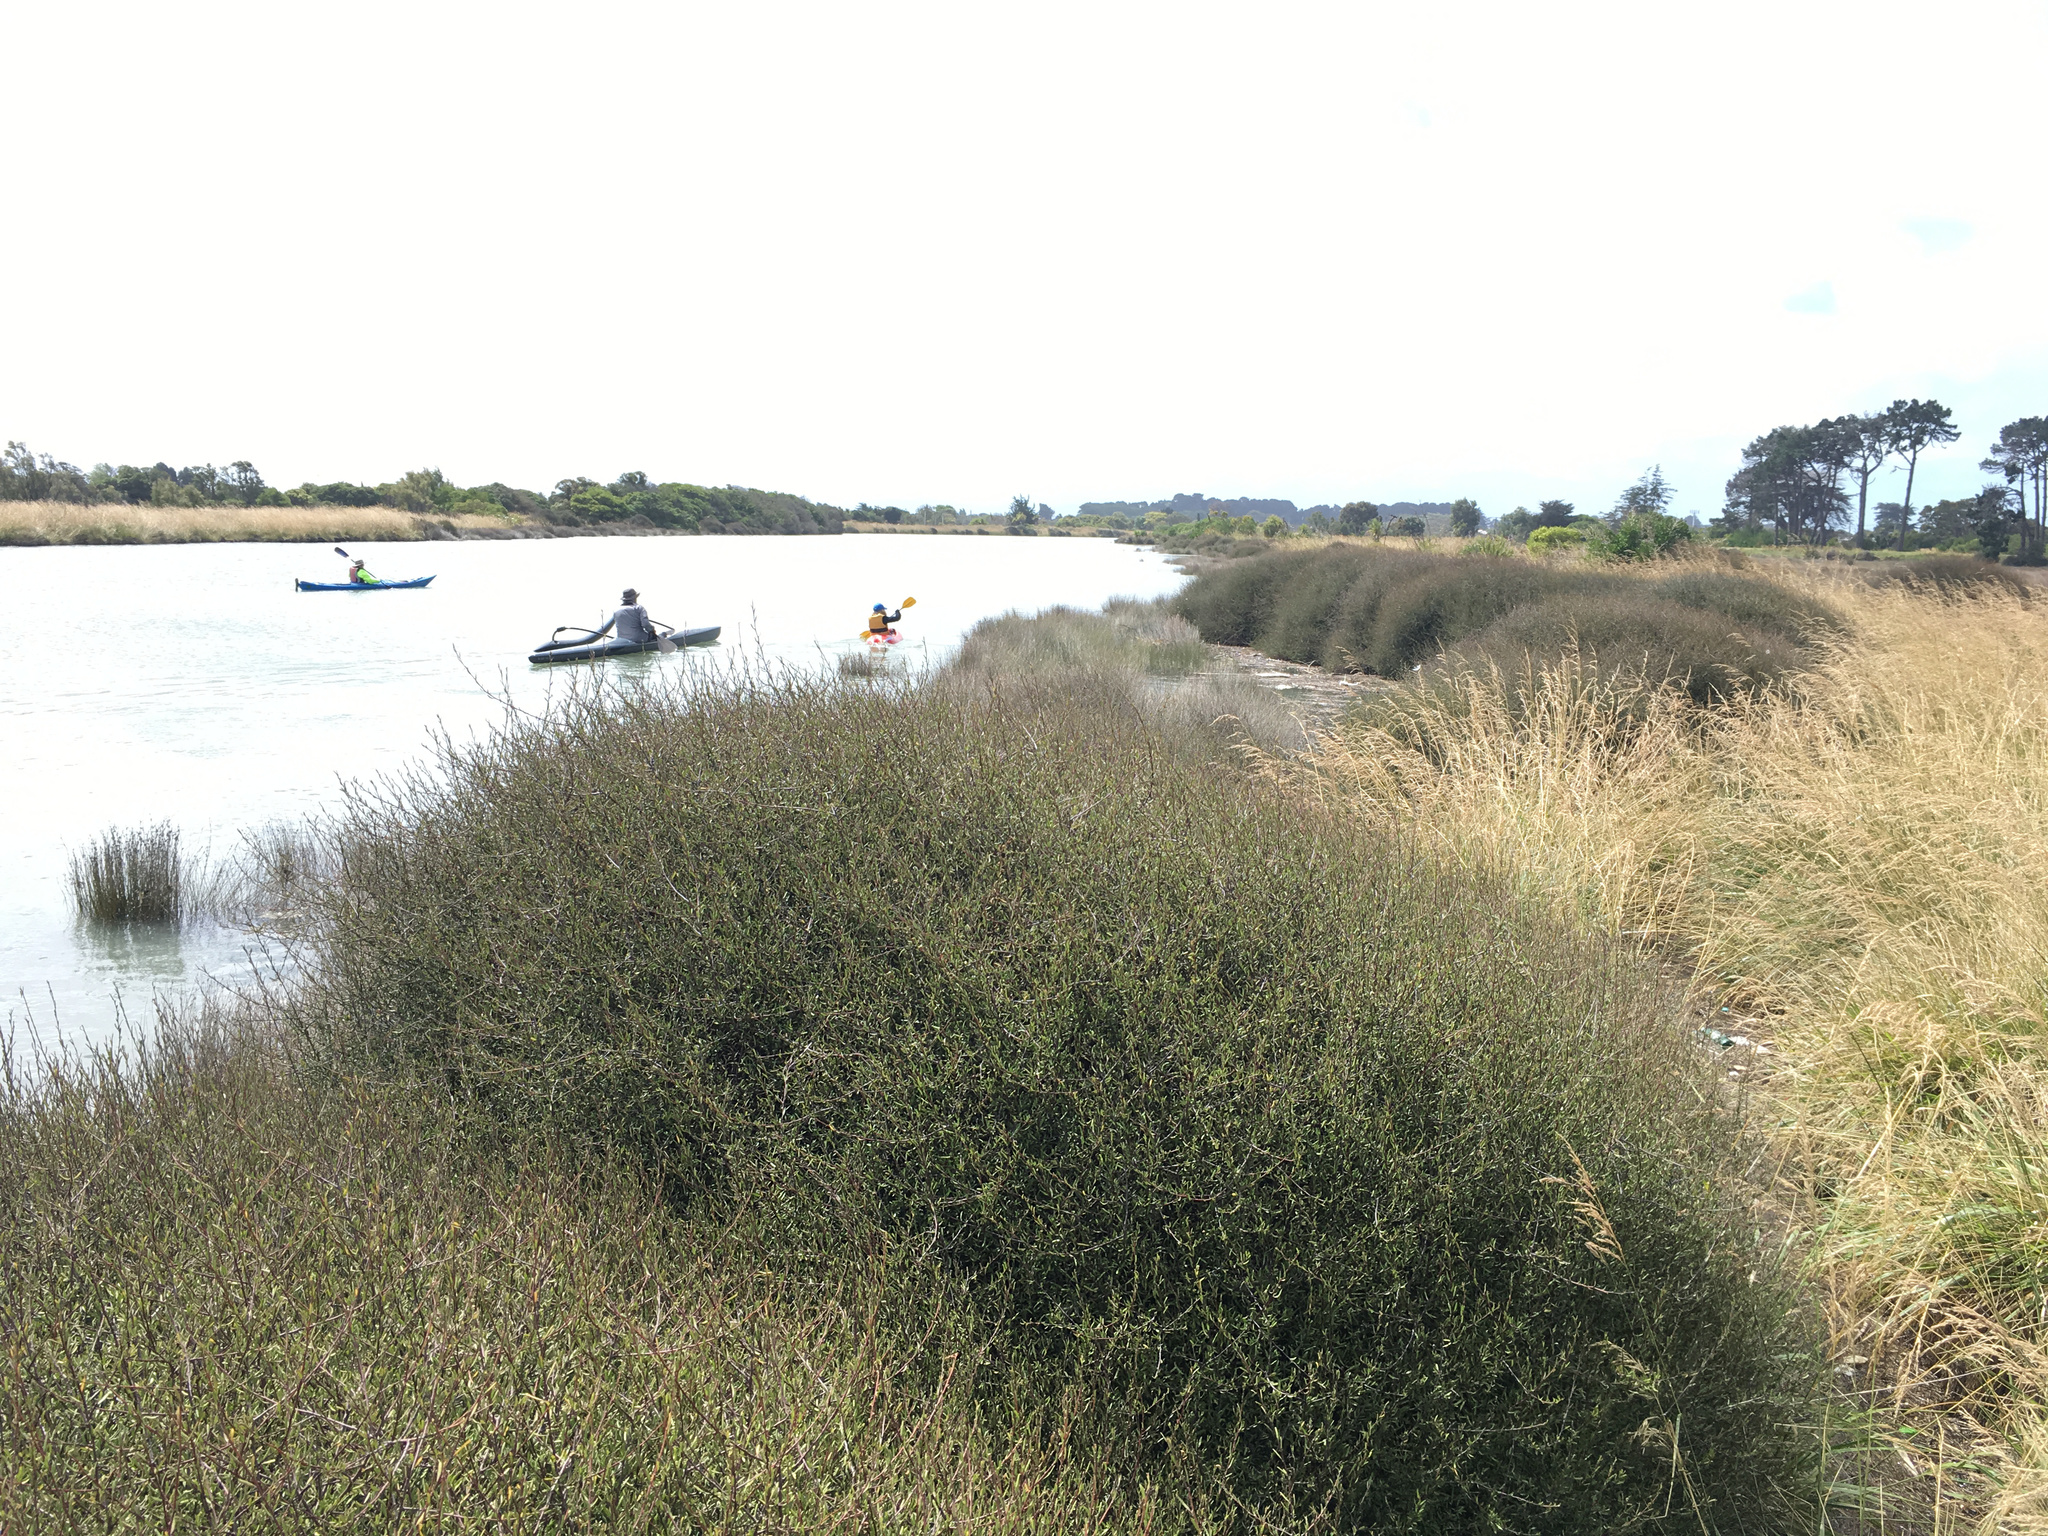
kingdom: Plantae
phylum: Tracheophyta
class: Magnoliopsida
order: Malvales
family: Malvaceae
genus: Plagianthus
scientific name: Plagianthus divaricatus
